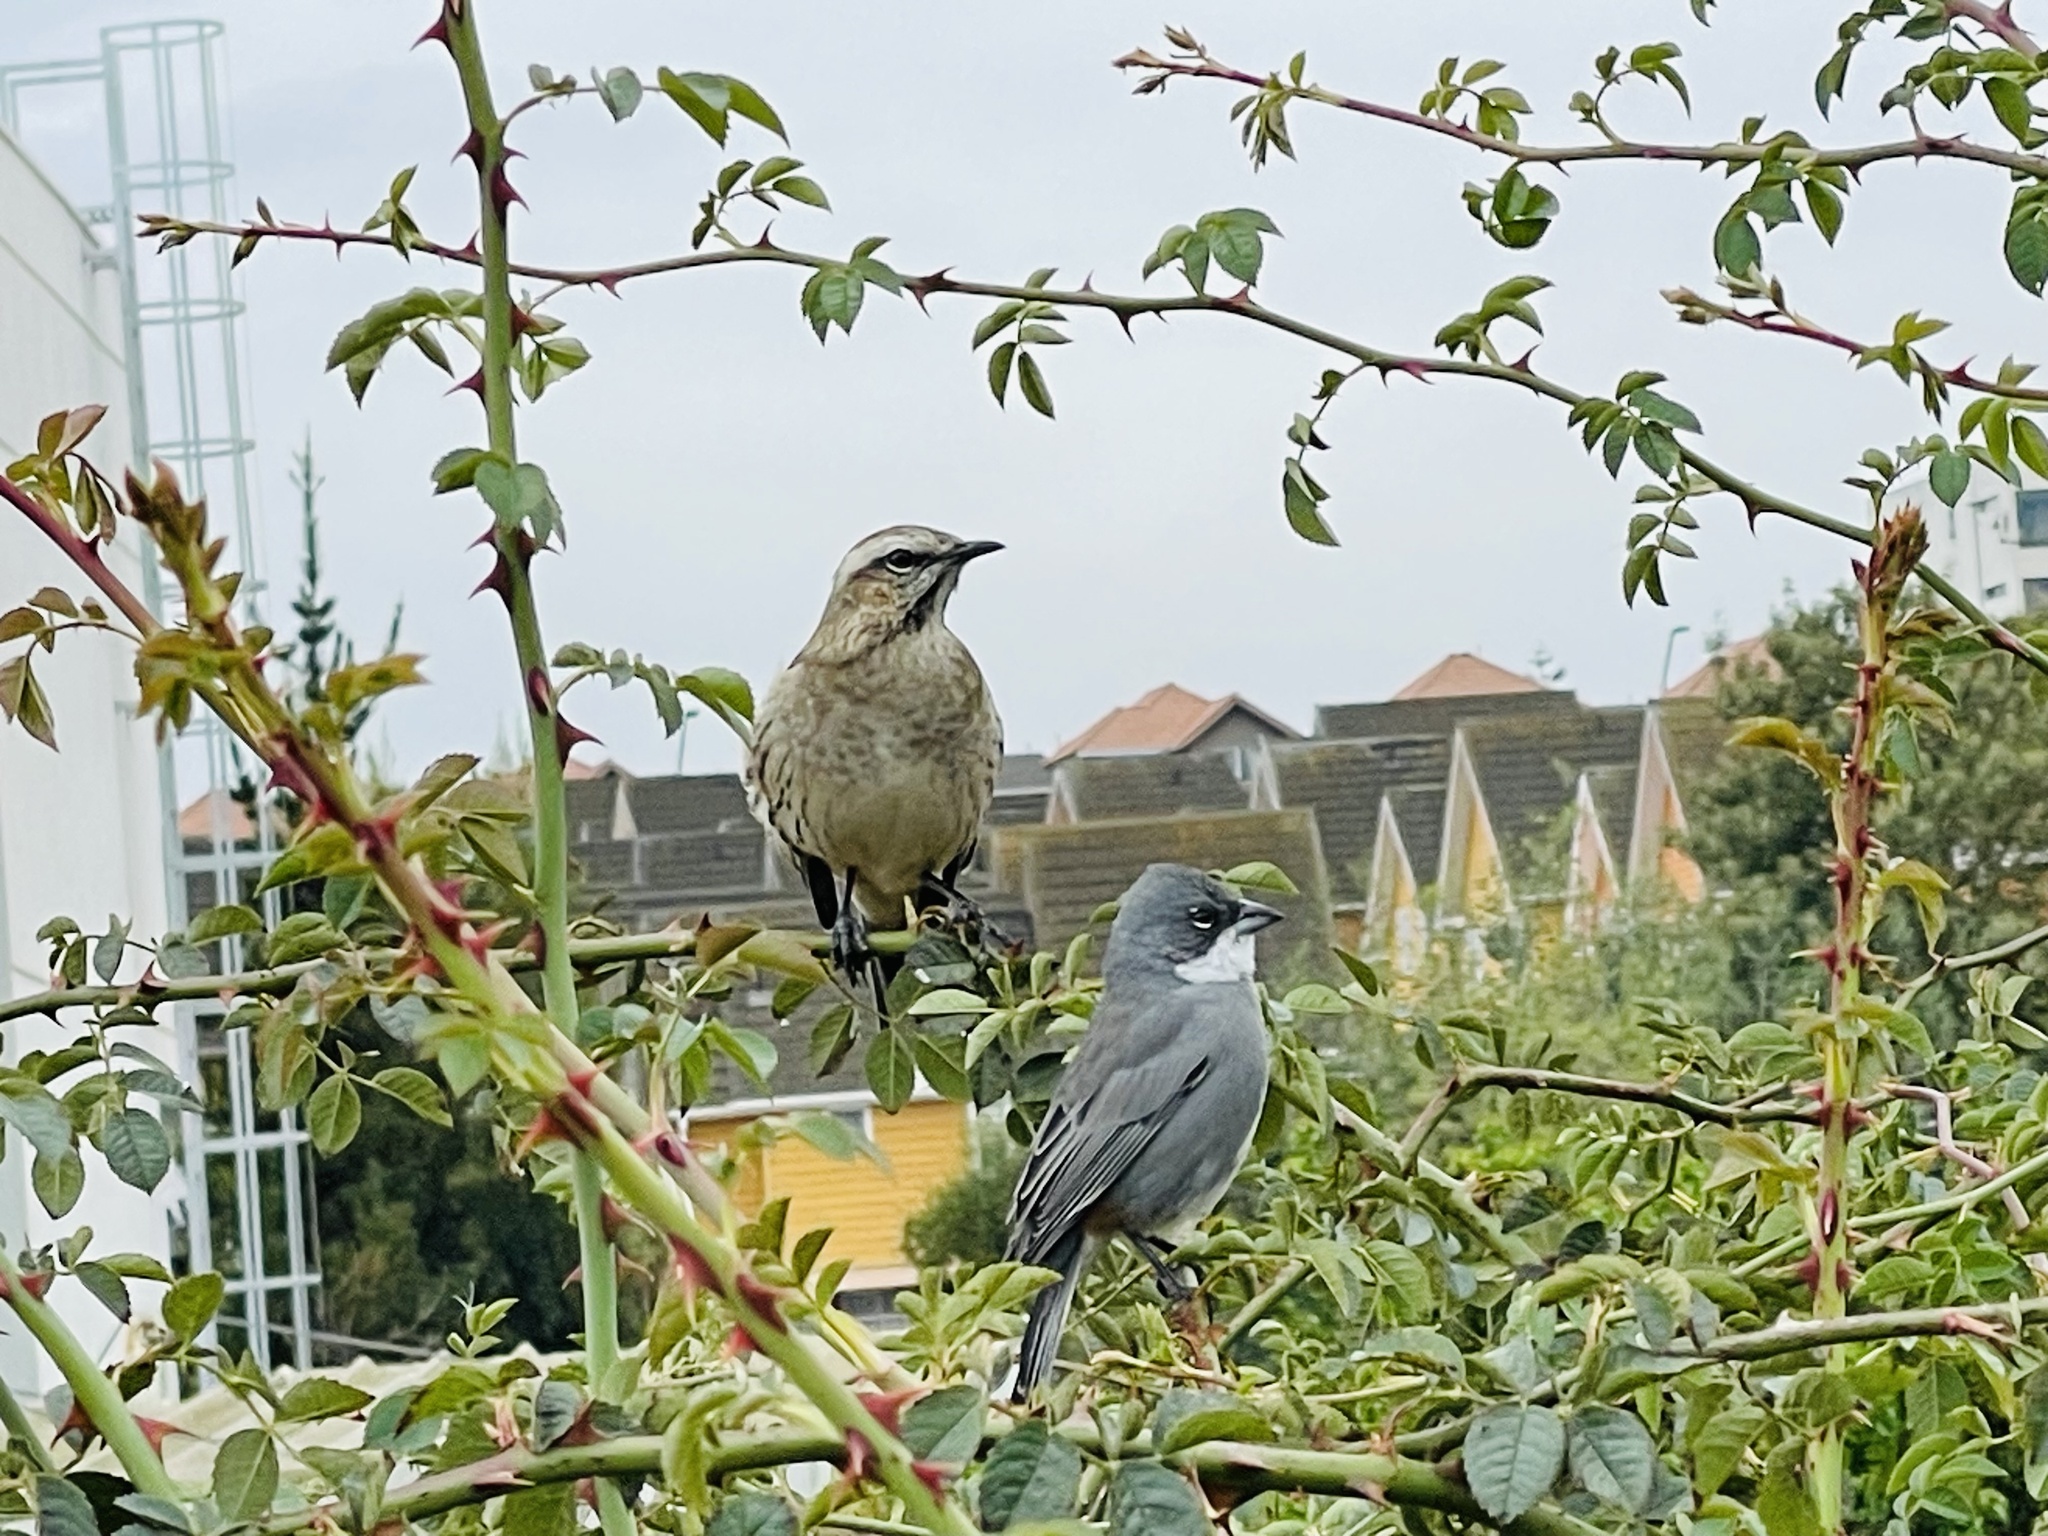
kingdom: Animalia
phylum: Chordata
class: Aves
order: Passeriformes
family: Thraupidae
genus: Diuca
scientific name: Diuca diuca
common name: Common diuca finch
